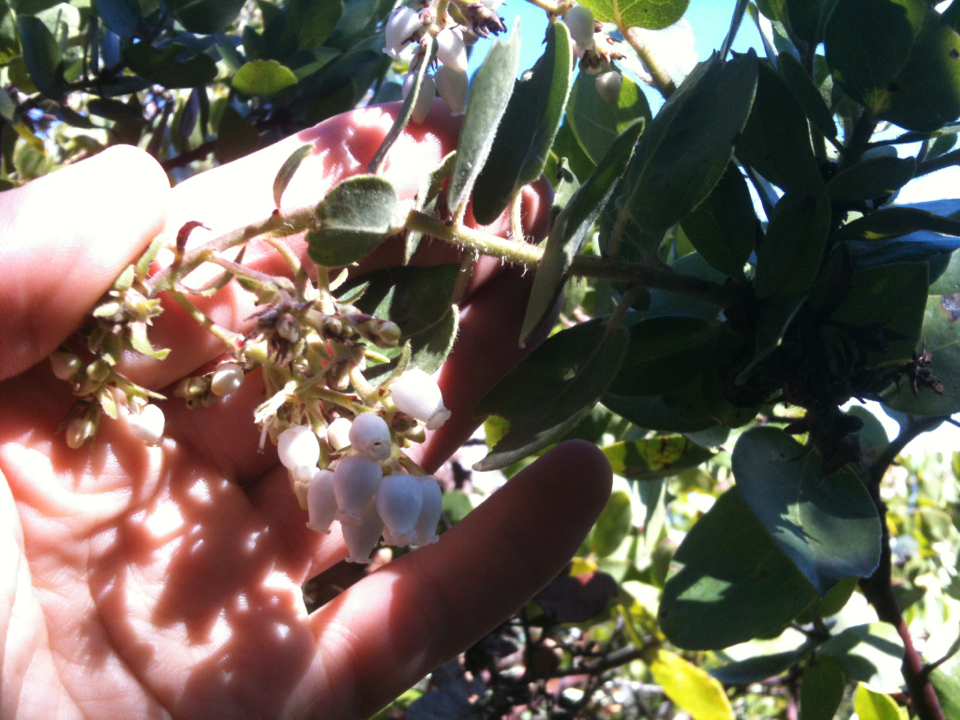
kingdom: Plantae
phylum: Tracheophyta
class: Magnoliopsida
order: Ericales
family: Ericaceae
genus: Arctostaphylos
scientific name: Arctostaphylos crustacea
